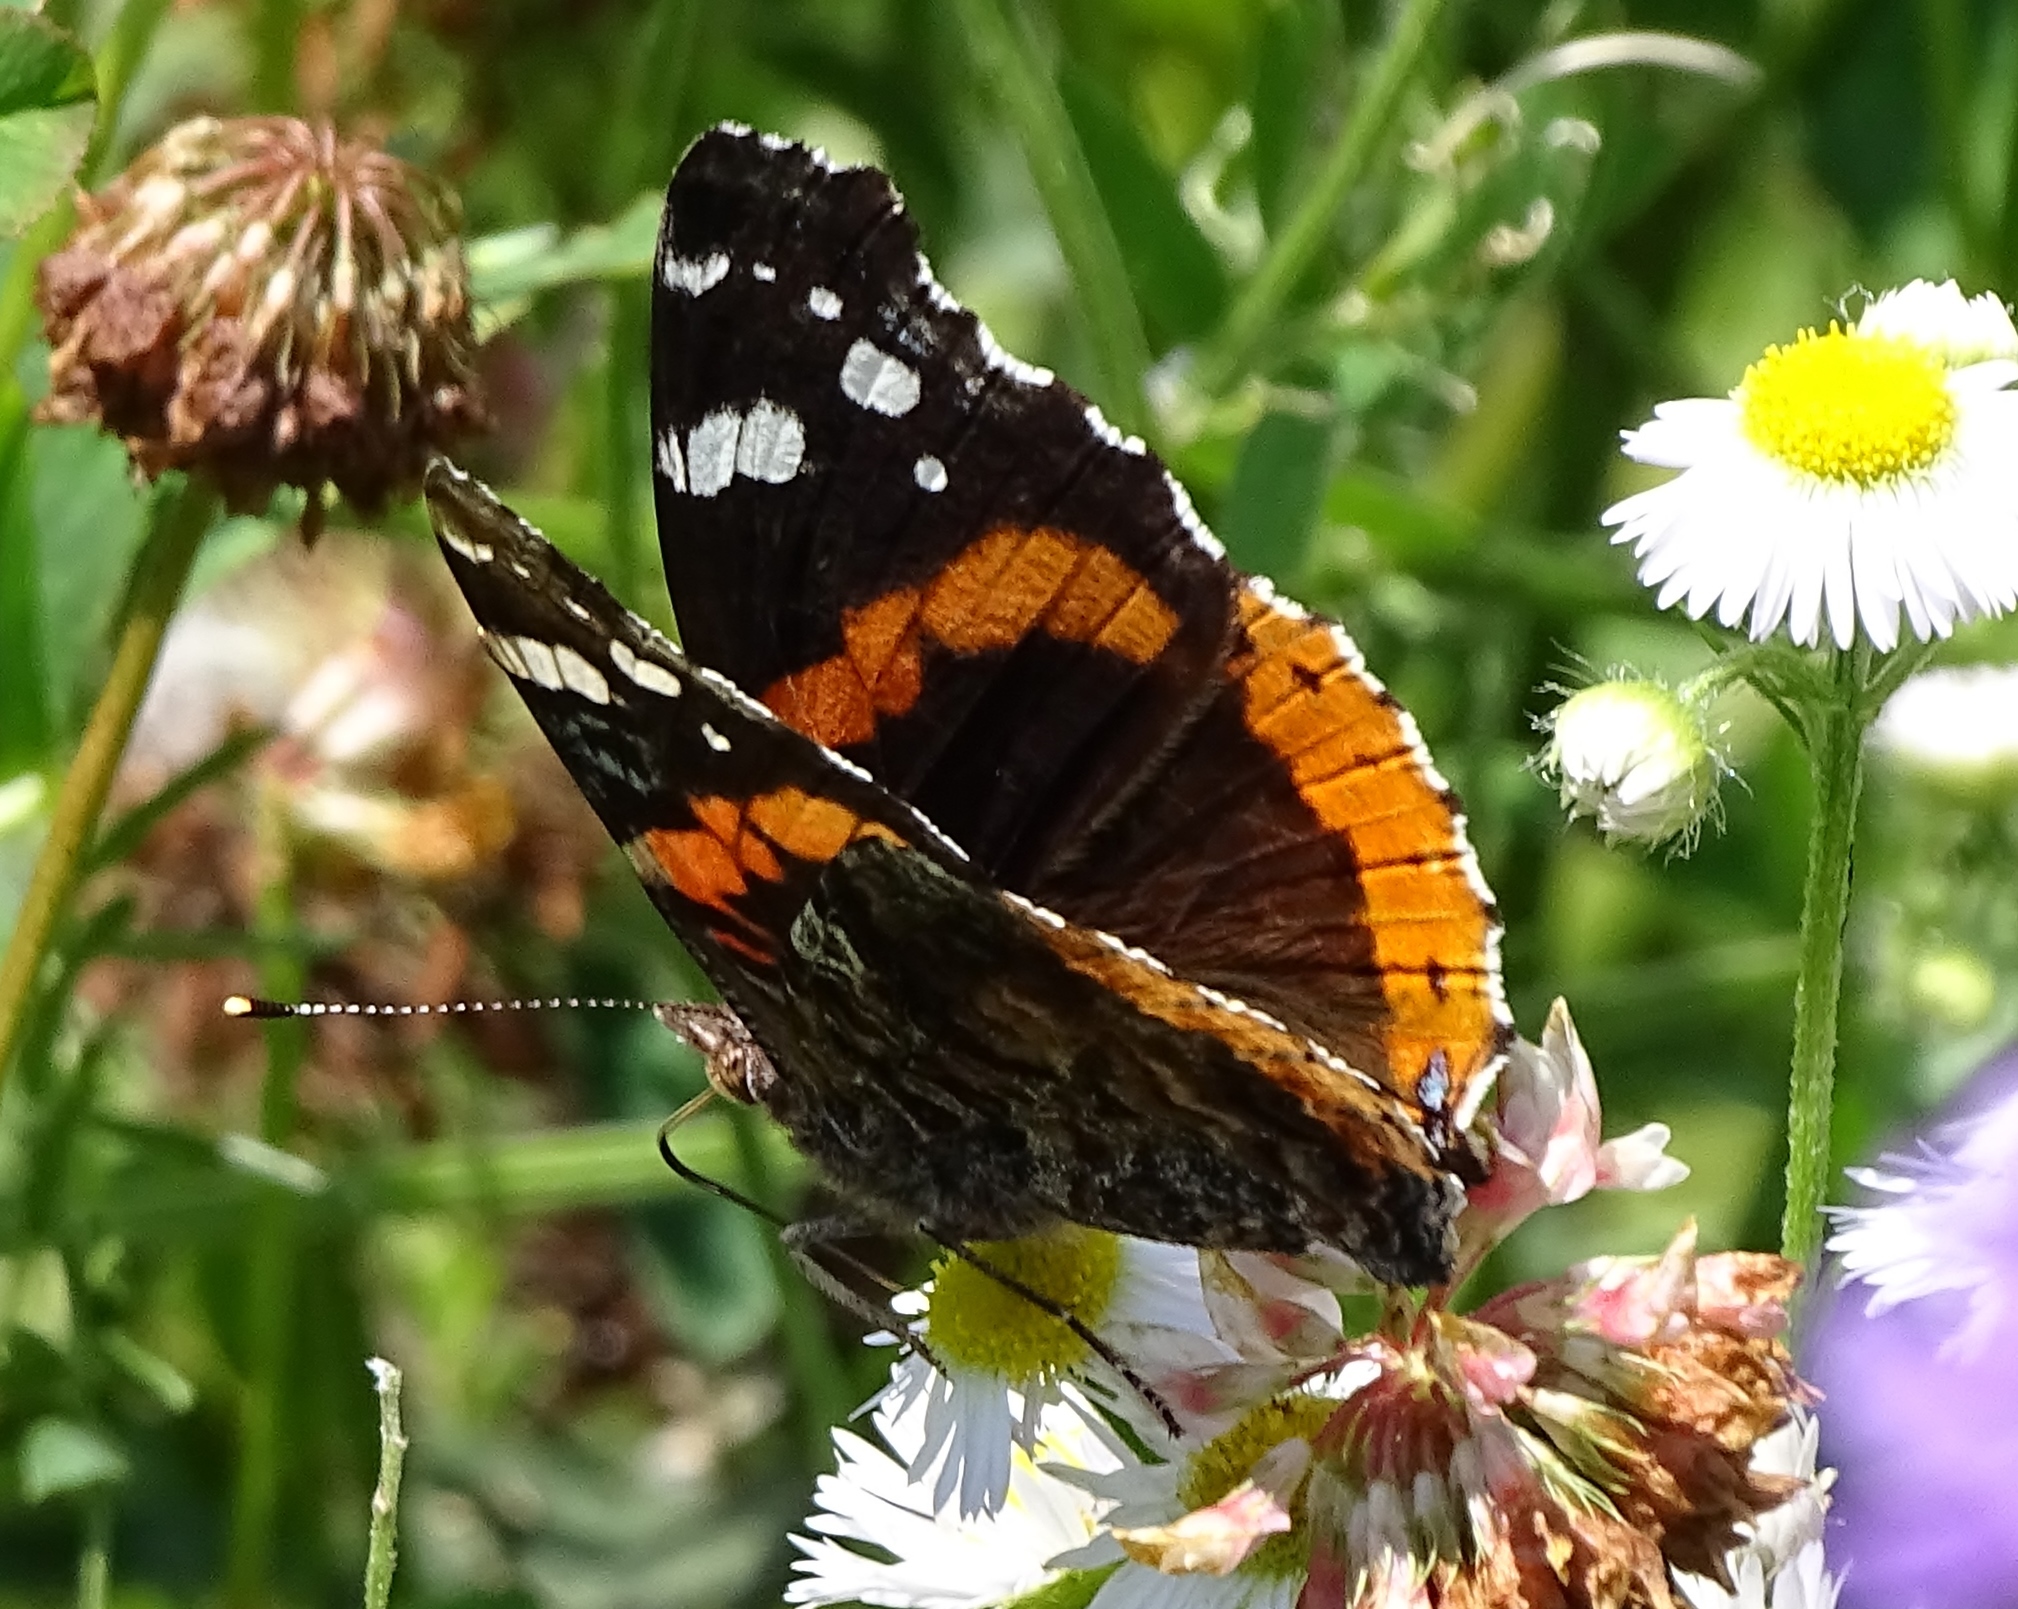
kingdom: Animalia
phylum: Arthropoda
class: Insecta
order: Lepidoptera
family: Nymphalidae
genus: Vanessa
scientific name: Vanessa atalanta
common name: Red admiral
